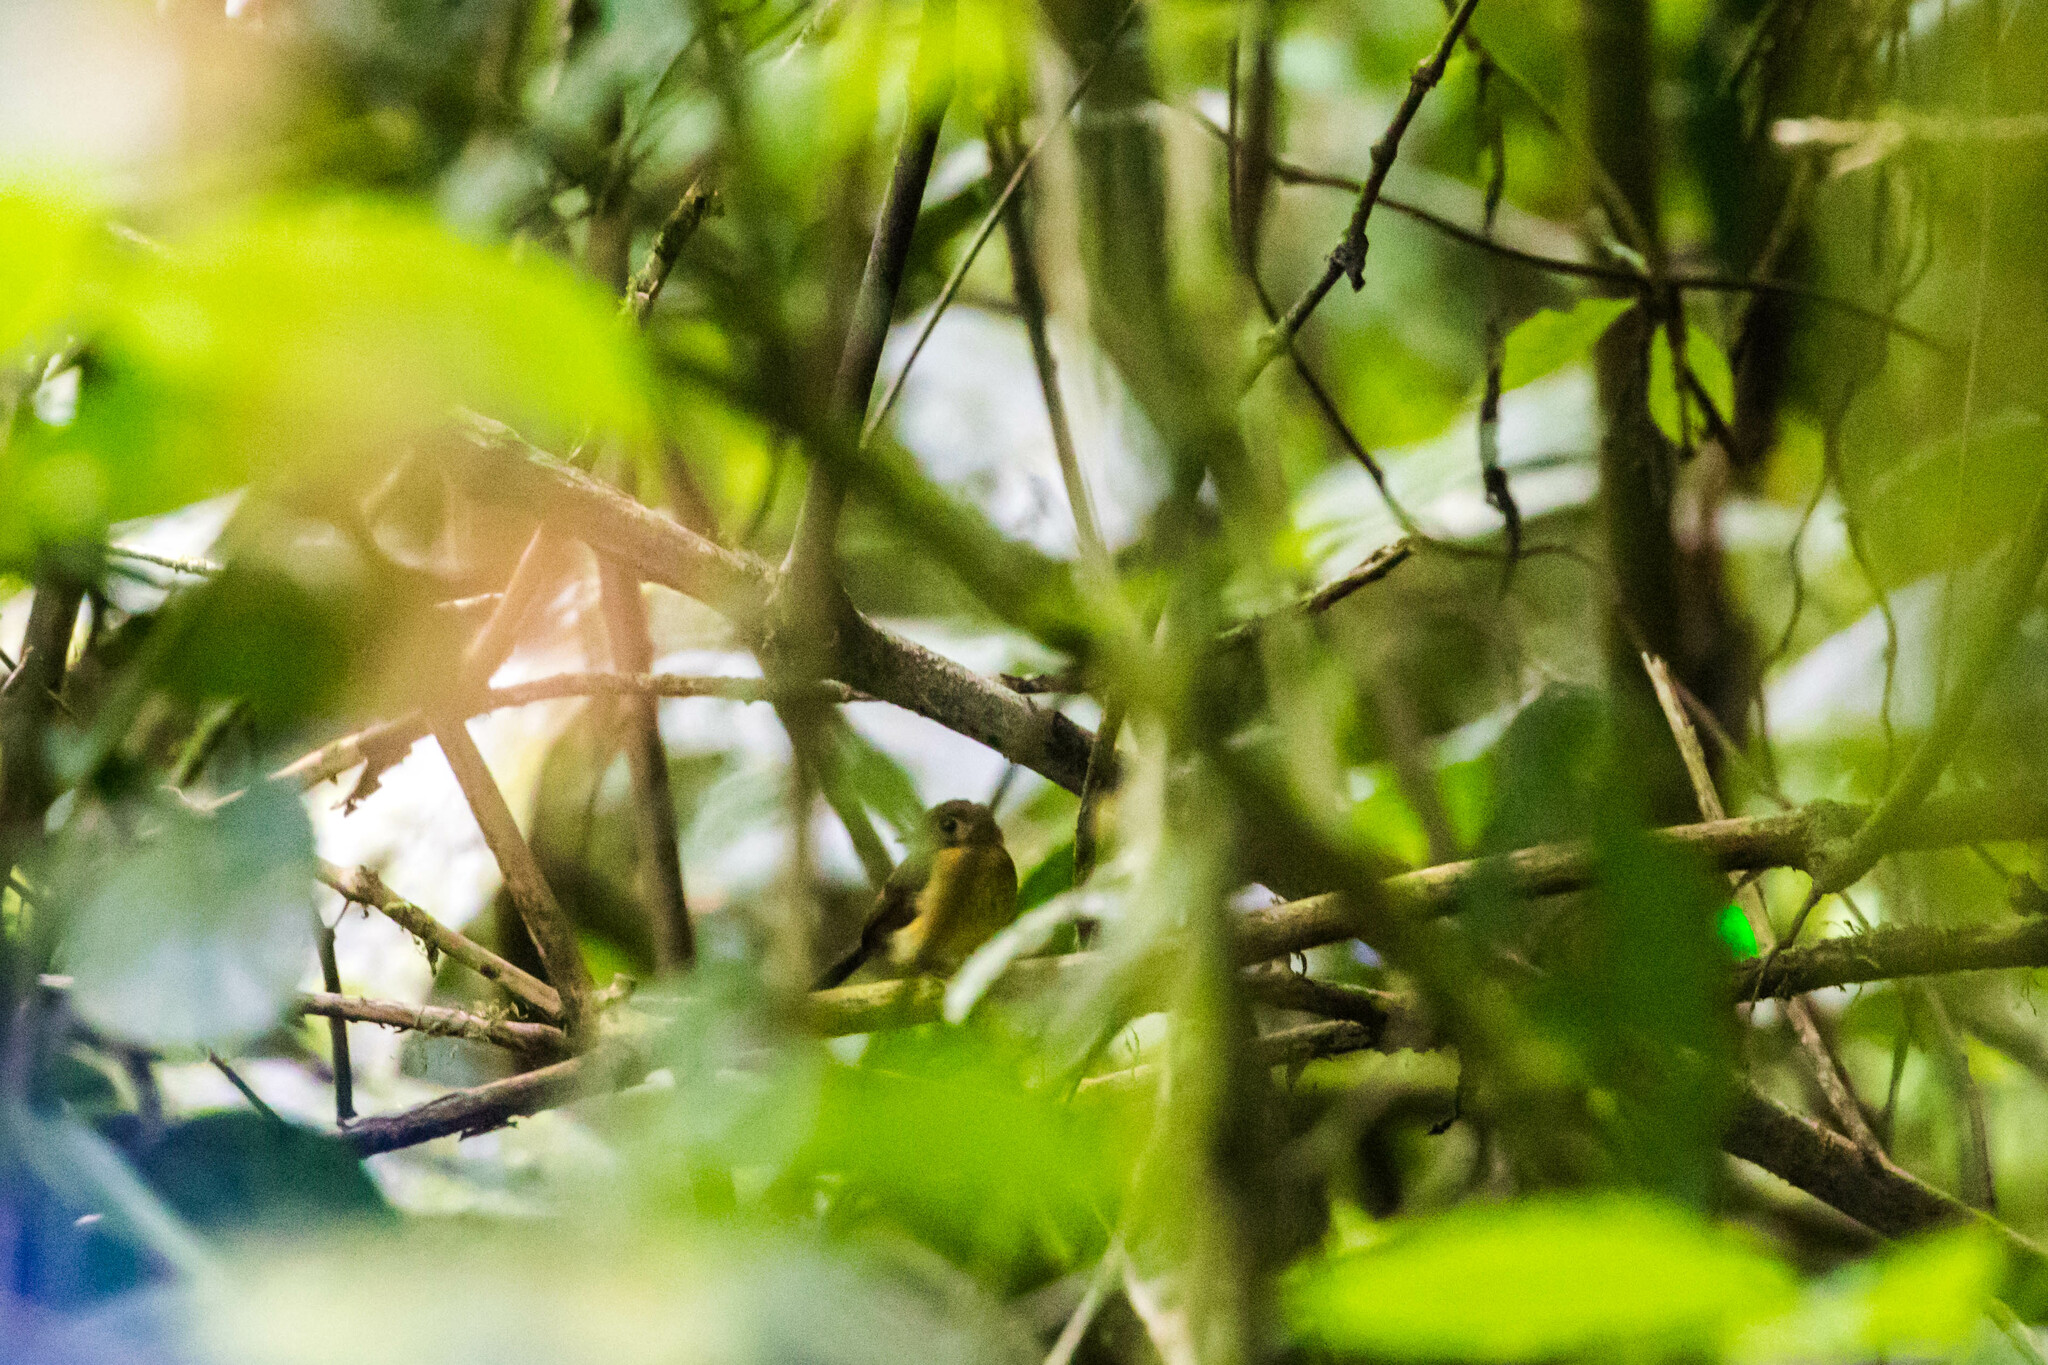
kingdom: Animalia
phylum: Chordata
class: Aves
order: Passeriformes
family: Tyrannidae
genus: Myiobius
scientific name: Myiobius barbatus
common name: Whiskered myiobius
